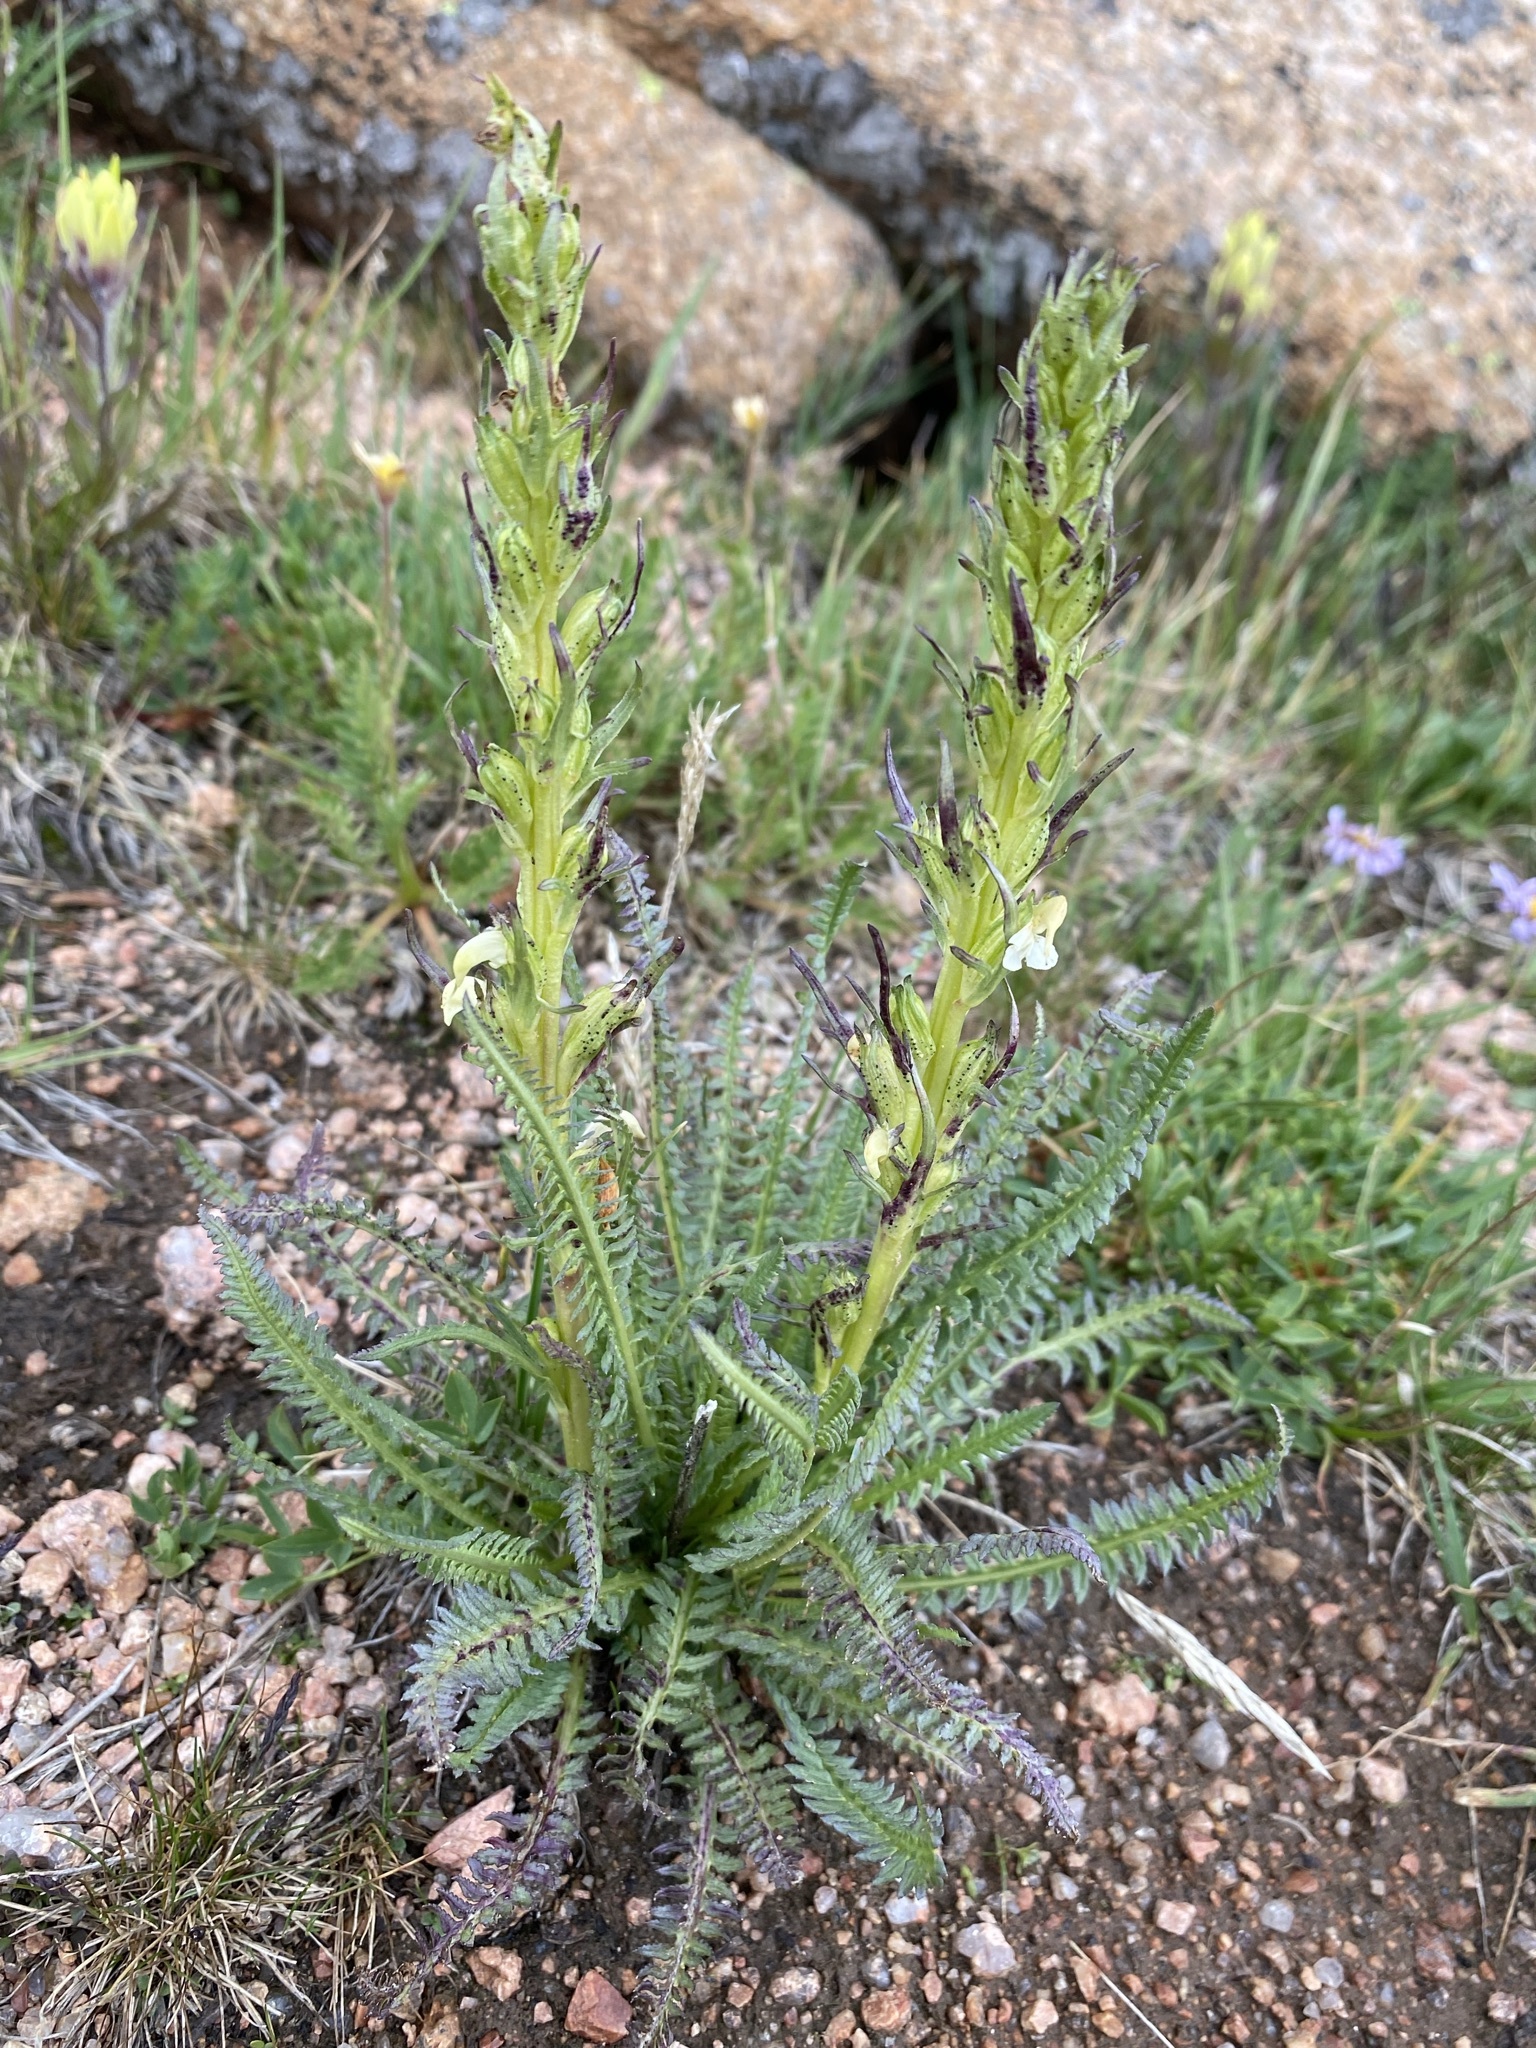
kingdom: Plantae
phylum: Tracheophyta
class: Magnoliopsida
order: Lamiales
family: Orobanchaceae
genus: Pedicularis
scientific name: Pedicularis parryi
